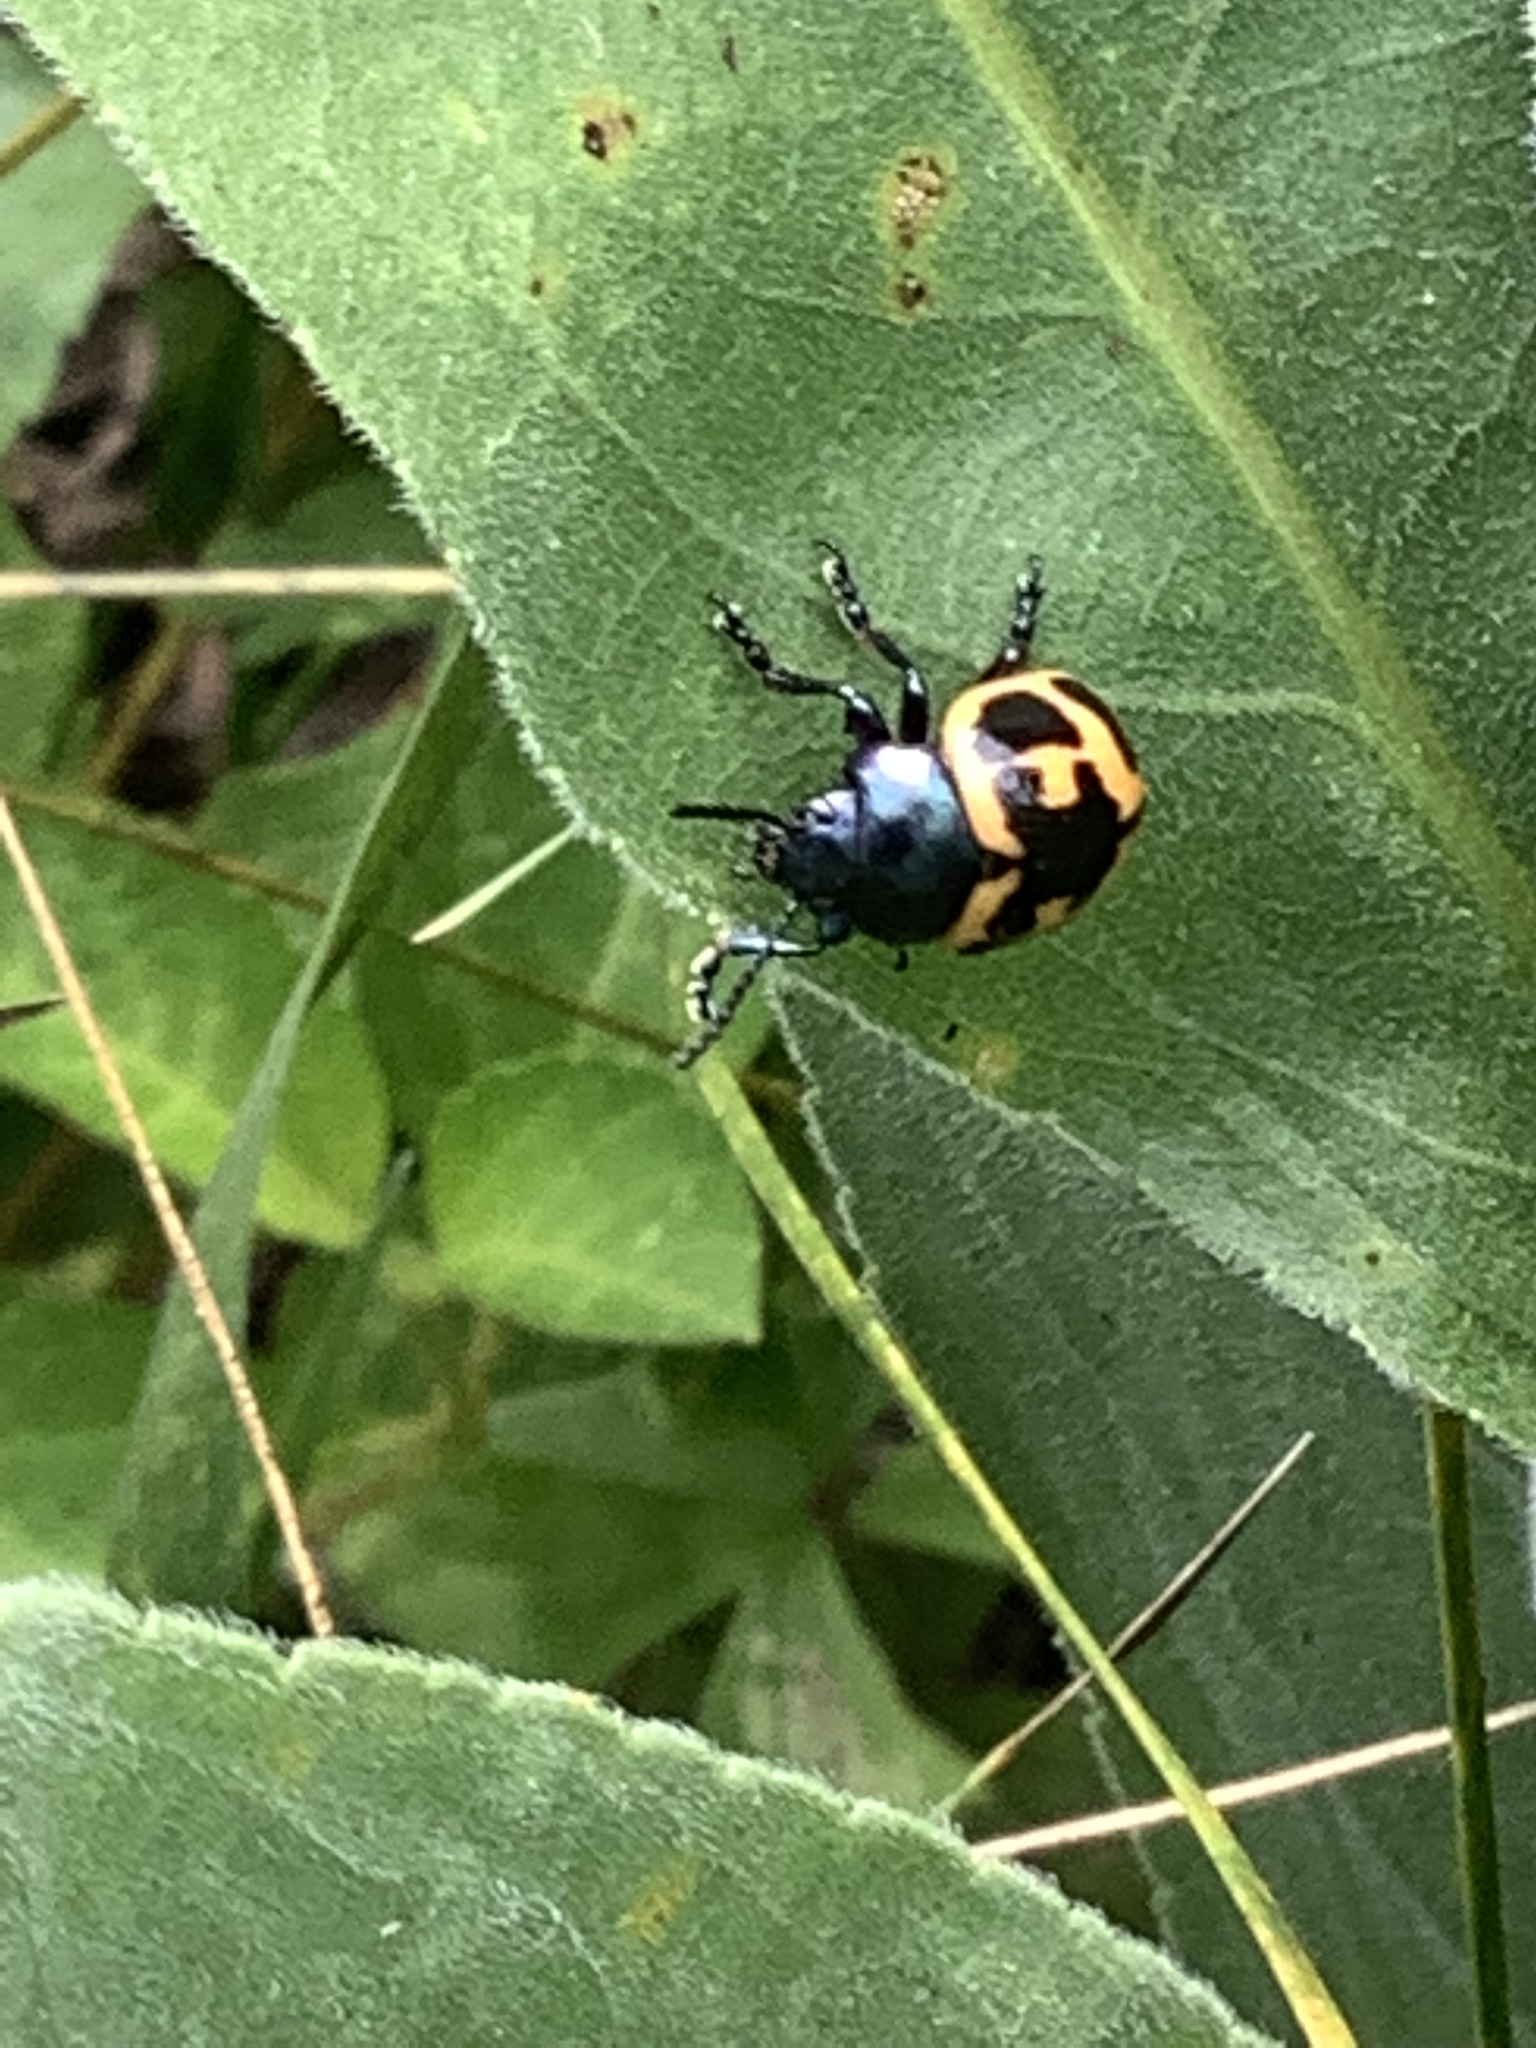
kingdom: Animalia
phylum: Arthropoda
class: Insecta
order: Coleoptera
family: Chrysomelidae
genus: Labidomera
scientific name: Labidomera clivicollis
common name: Swamp milkweed leaf beetle
